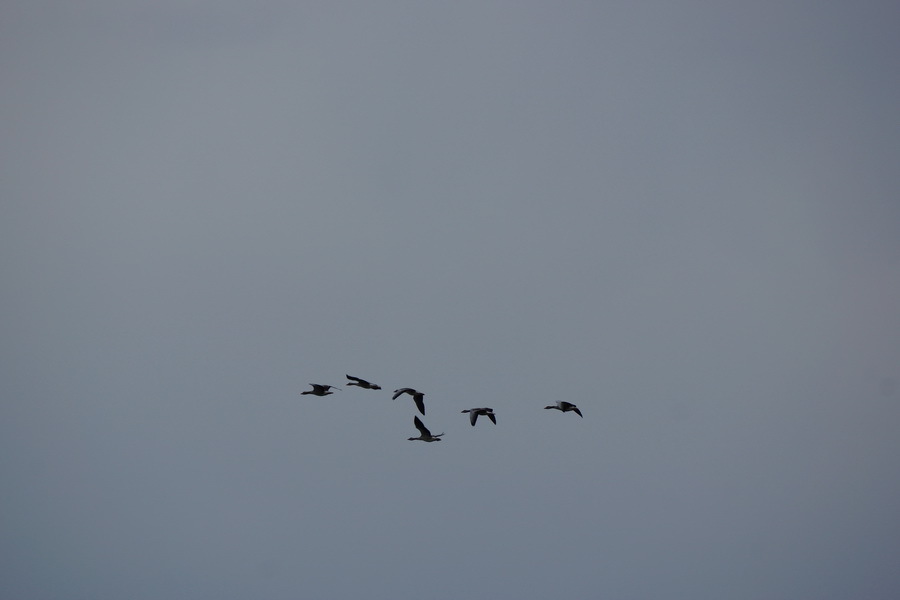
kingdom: Animalia
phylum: Chordata
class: Aves
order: Anseriformes
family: Anatidae
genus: Anser
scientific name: Anser anser
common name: Greylag goose
